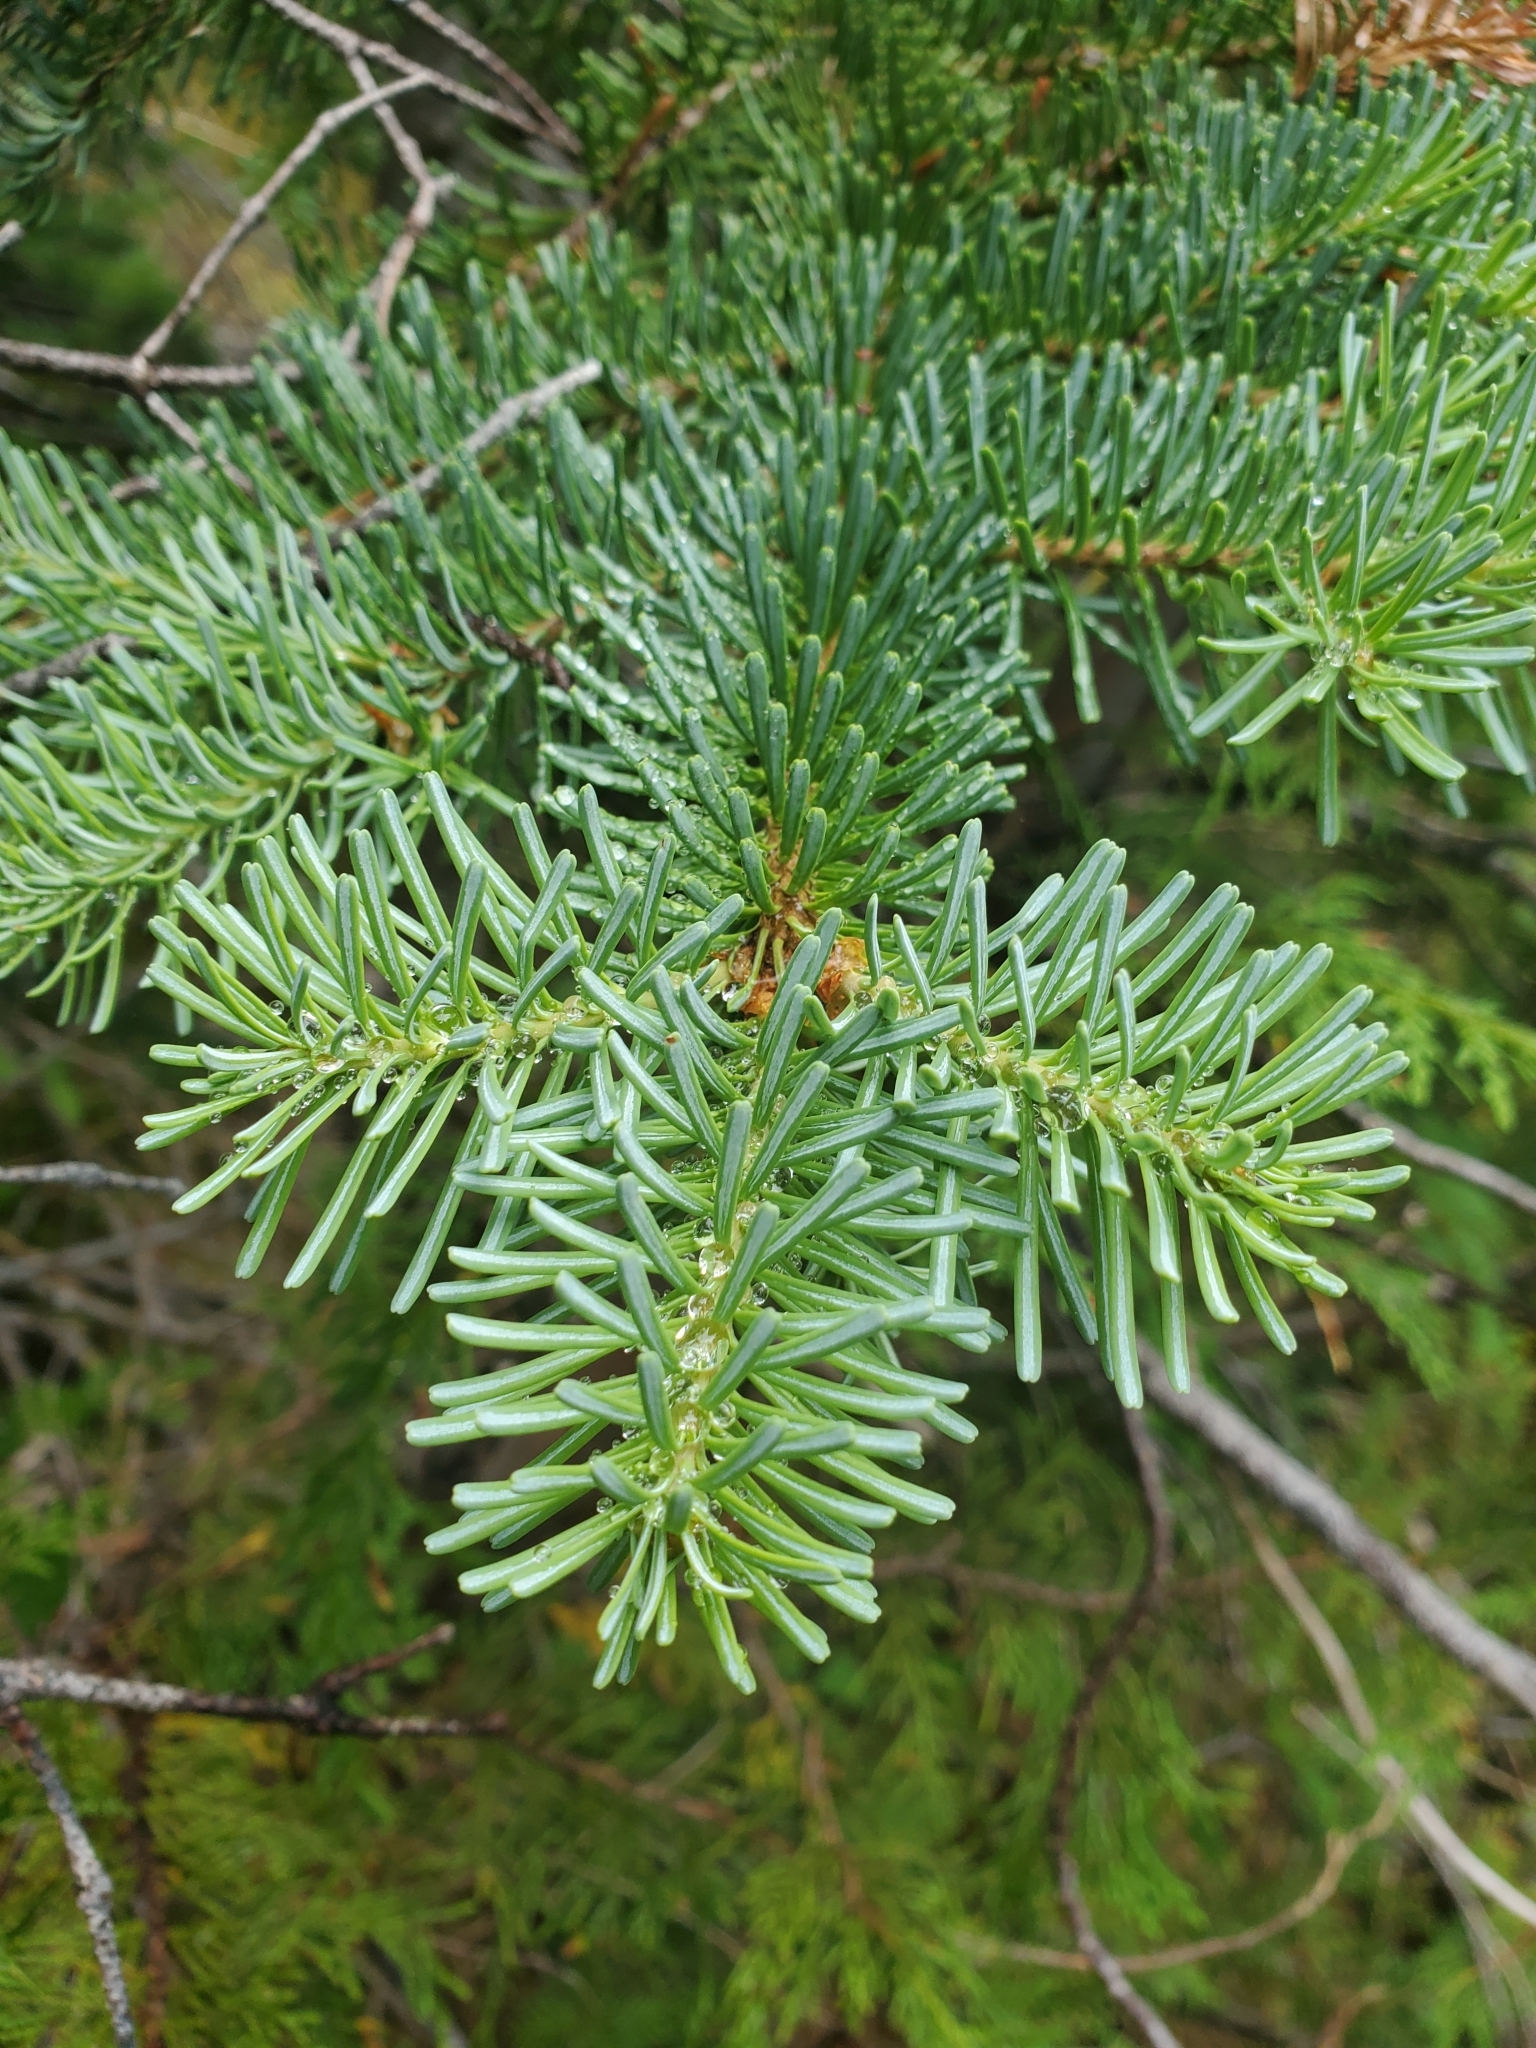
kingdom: Plantae
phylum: Tracheophyta
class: Pinopsida
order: Pinales
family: Pinaceae
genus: Abies
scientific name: Abies lasiocarpa
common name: Subalpine fir
